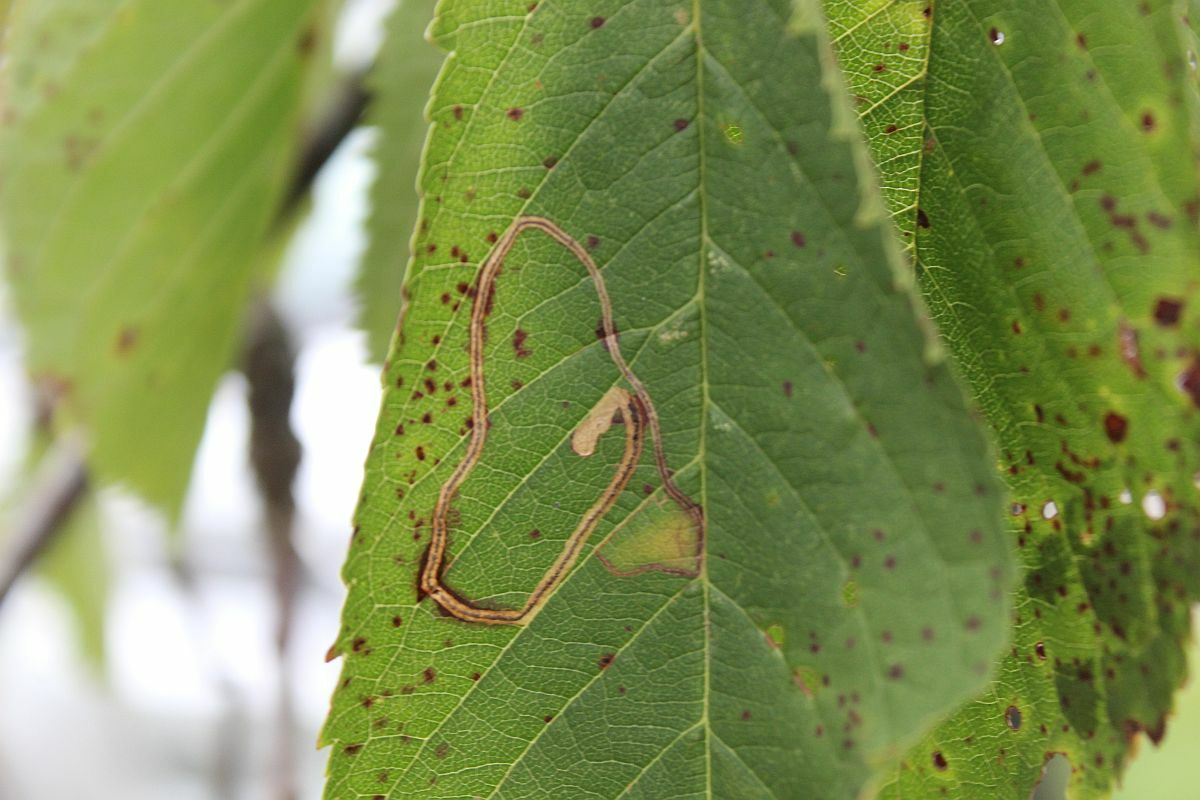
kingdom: Animalia
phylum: Arthropoda
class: Insecta
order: Lepidoptera
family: Lyonetiidae
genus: Lyonetia
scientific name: Lyonetia clerkella
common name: Apple leaf miner
